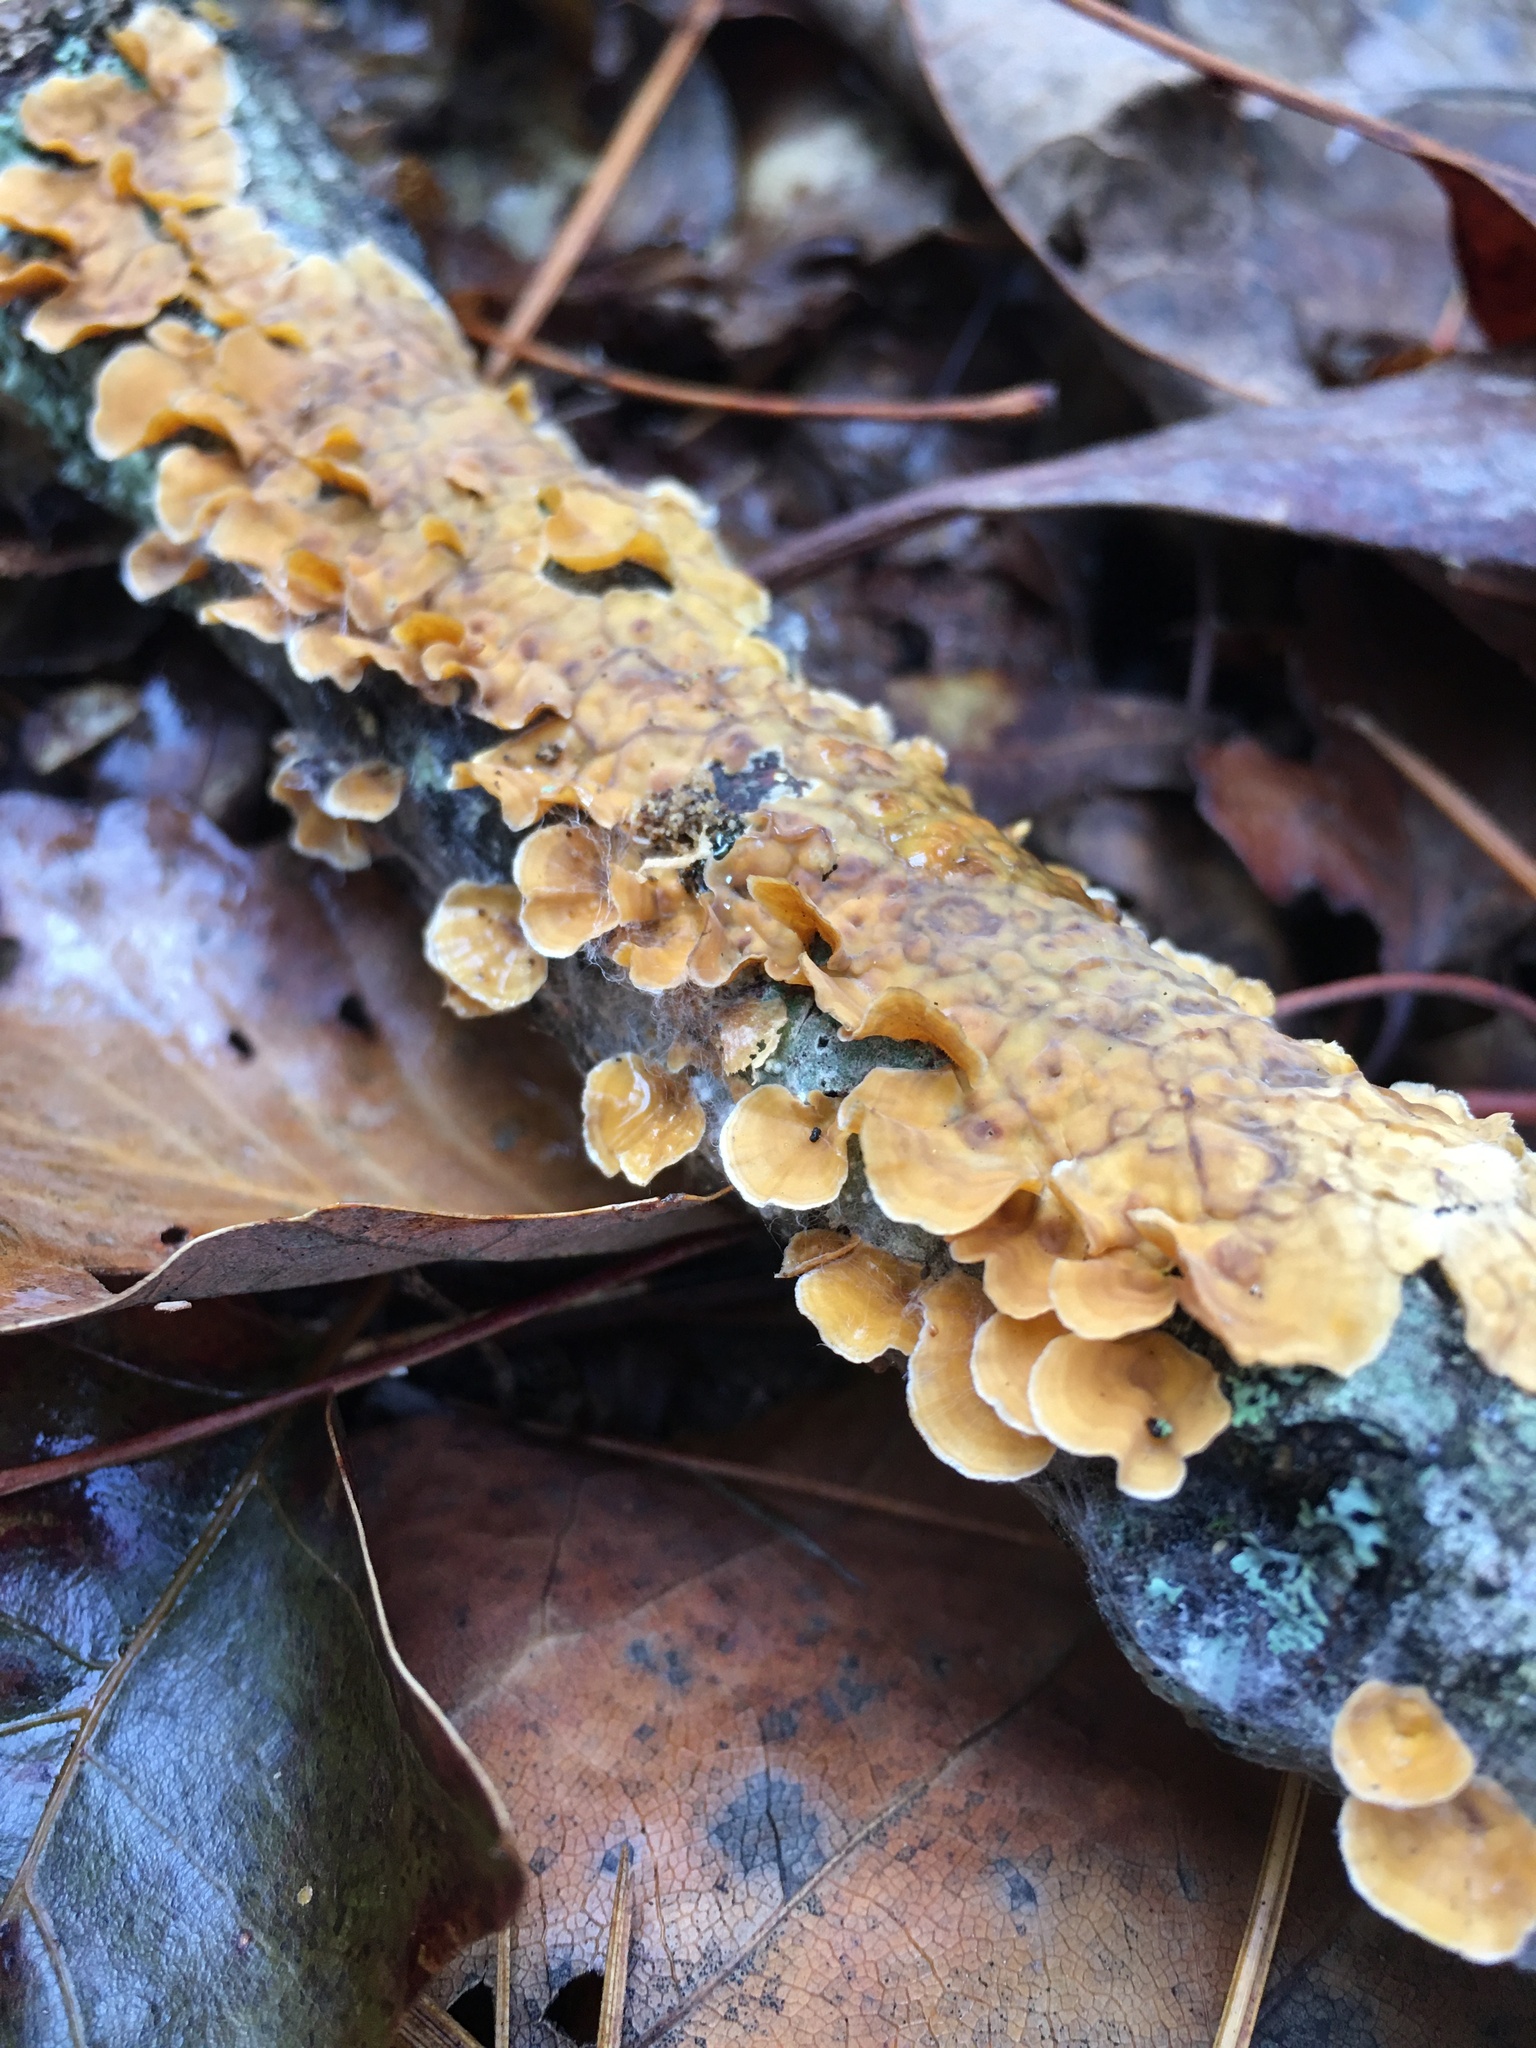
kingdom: Fungi
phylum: Basidiomycota
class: Agaricomycetes
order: Russulales
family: Stereaceae
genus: Stereum
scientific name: Stereum complicatum
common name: Crowded parchment
